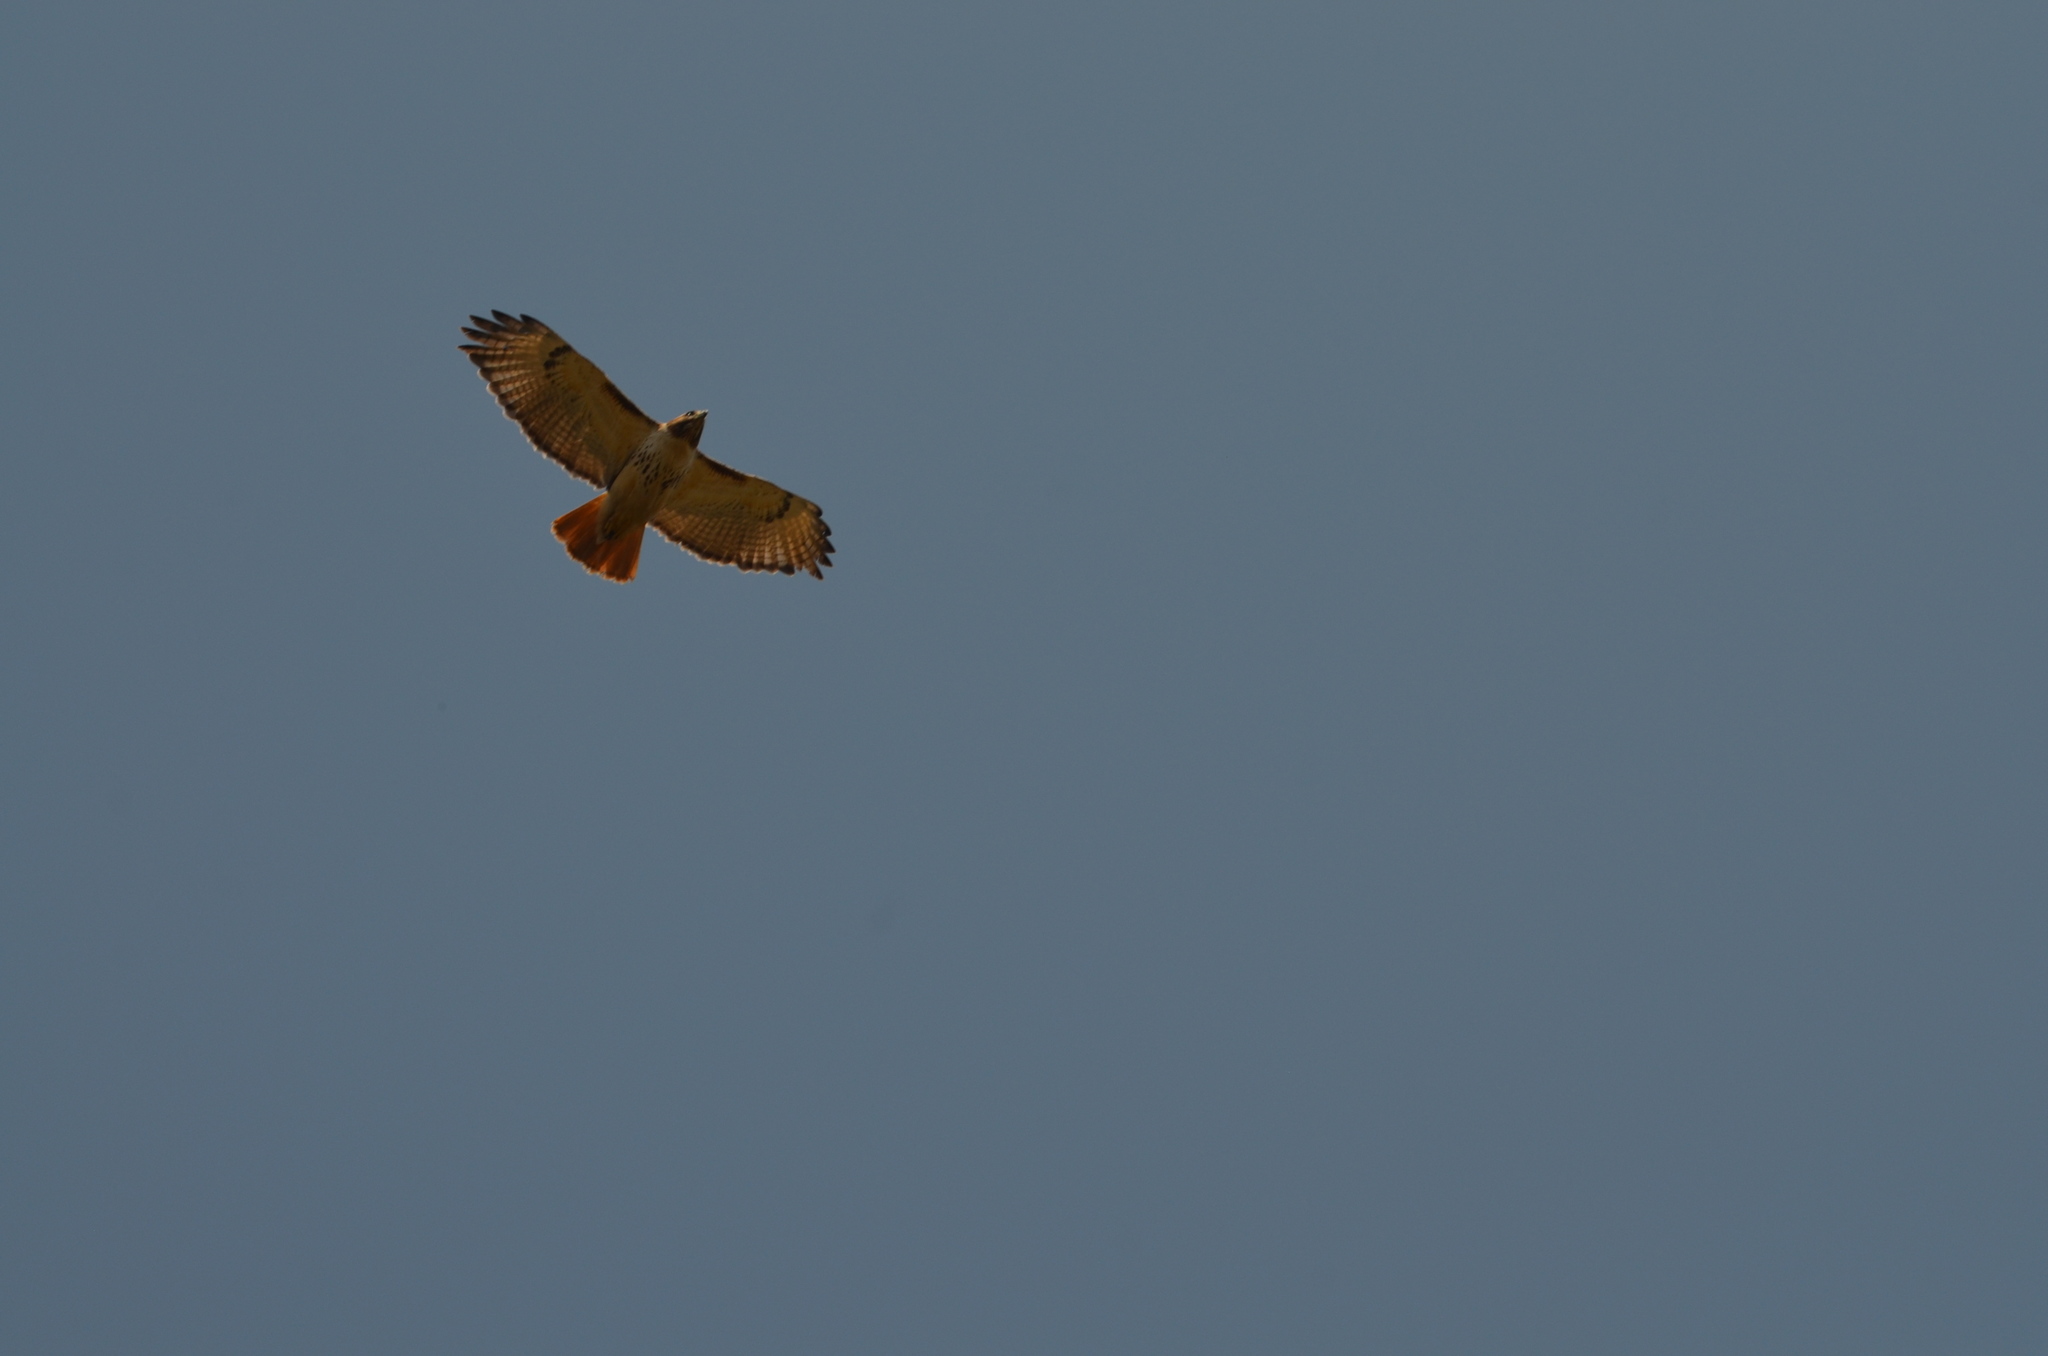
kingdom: Animalia
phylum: Chordata
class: Aves
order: Accipitriformes
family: Accipitridae
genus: Buteo
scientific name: Buteo jamaicensis
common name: Red-tailed hawk
